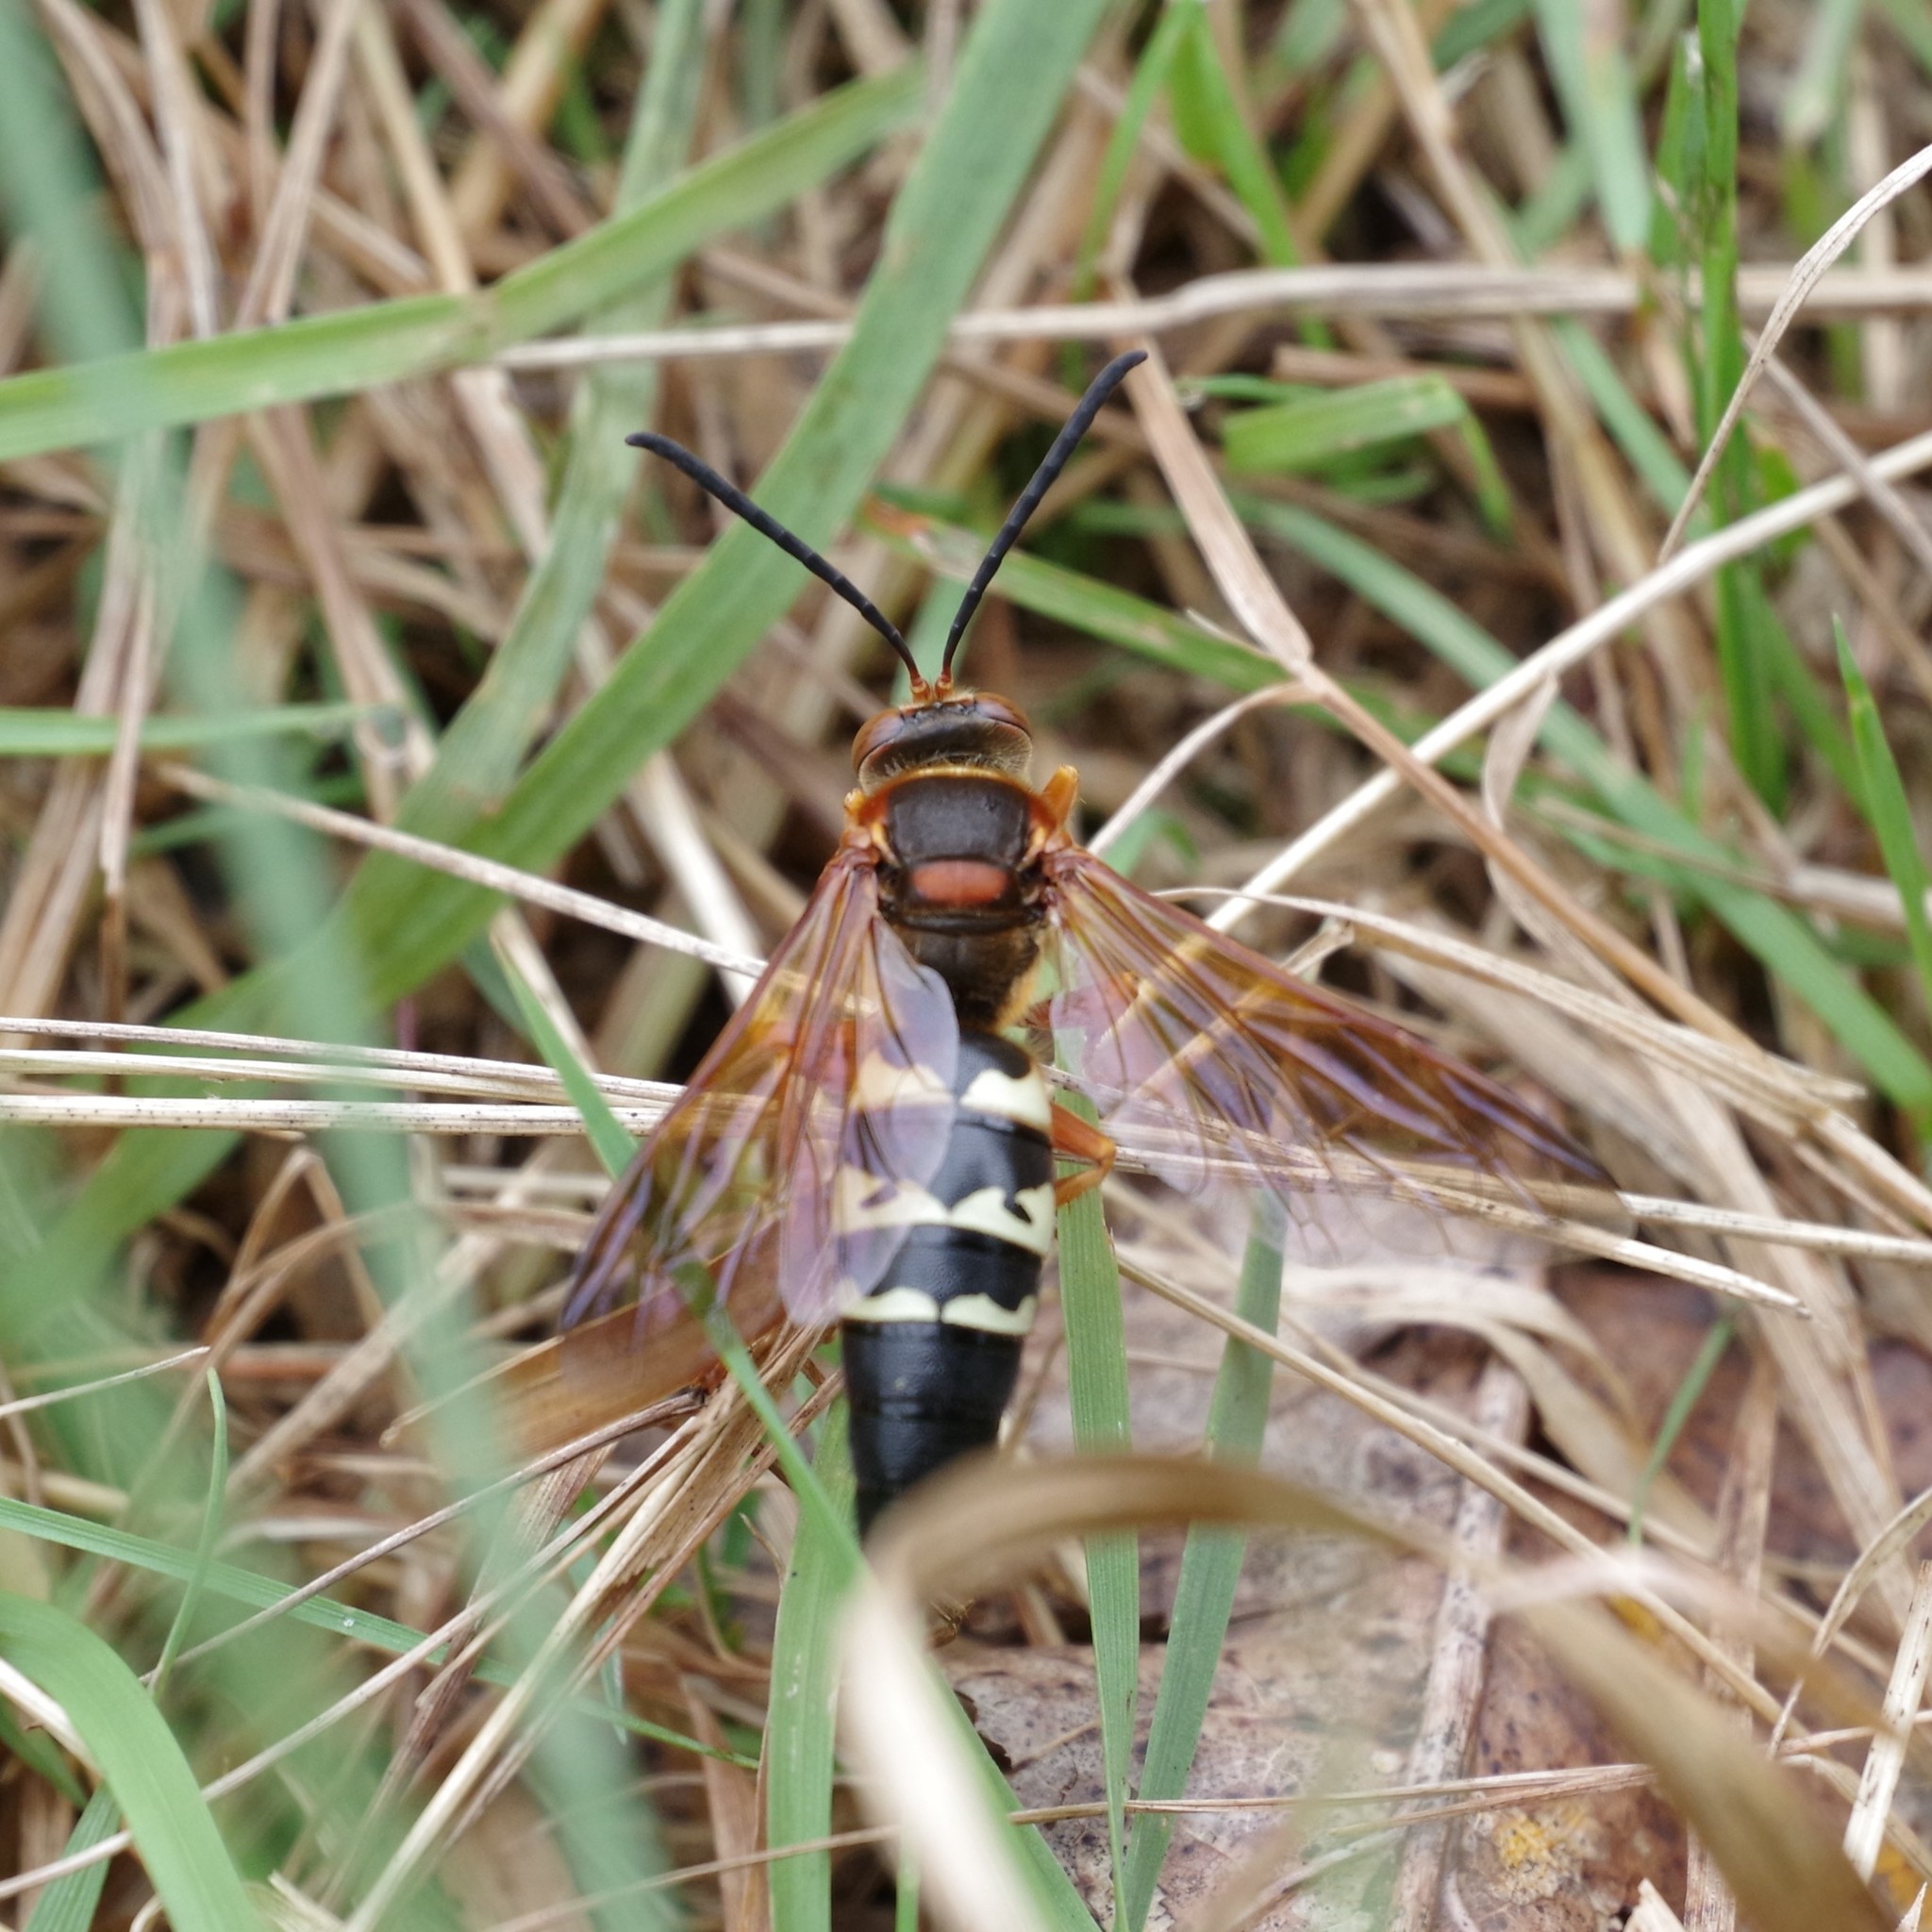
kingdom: Animalia
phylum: Arthropoda
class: Insecta
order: Hymenoptera
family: Crabronidae
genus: Sphecius
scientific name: Sphecius speciosus
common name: Cicada killer
